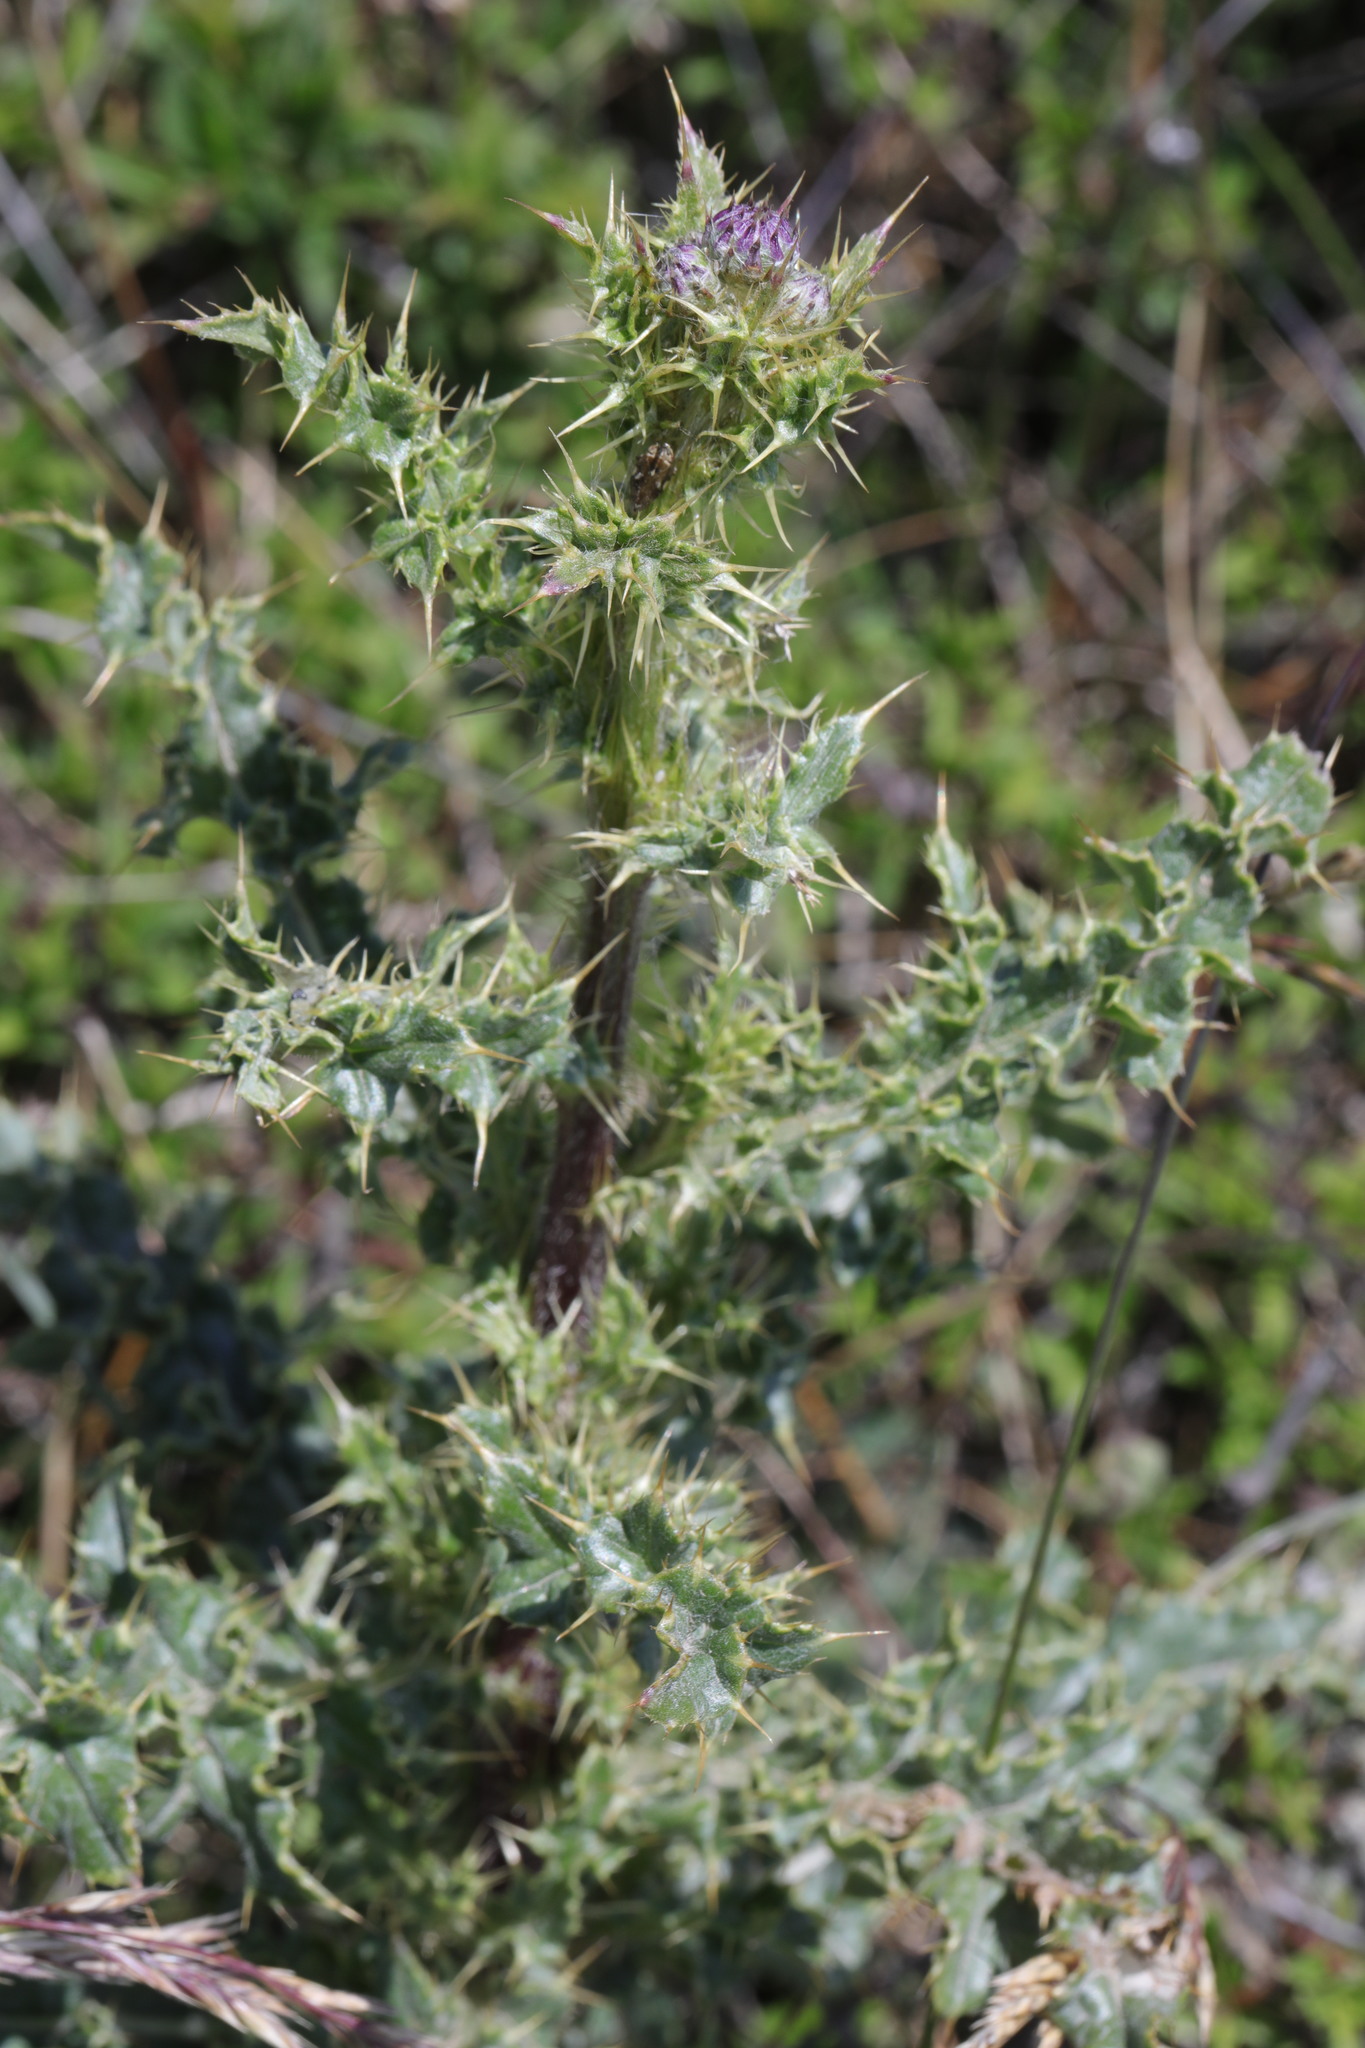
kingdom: Plantae
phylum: Tracheophyta
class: Magnoliopsida
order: Asterales
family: Asteraceae
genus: Cirsium
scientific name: Cirsium arvense
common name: Creeping thistle
